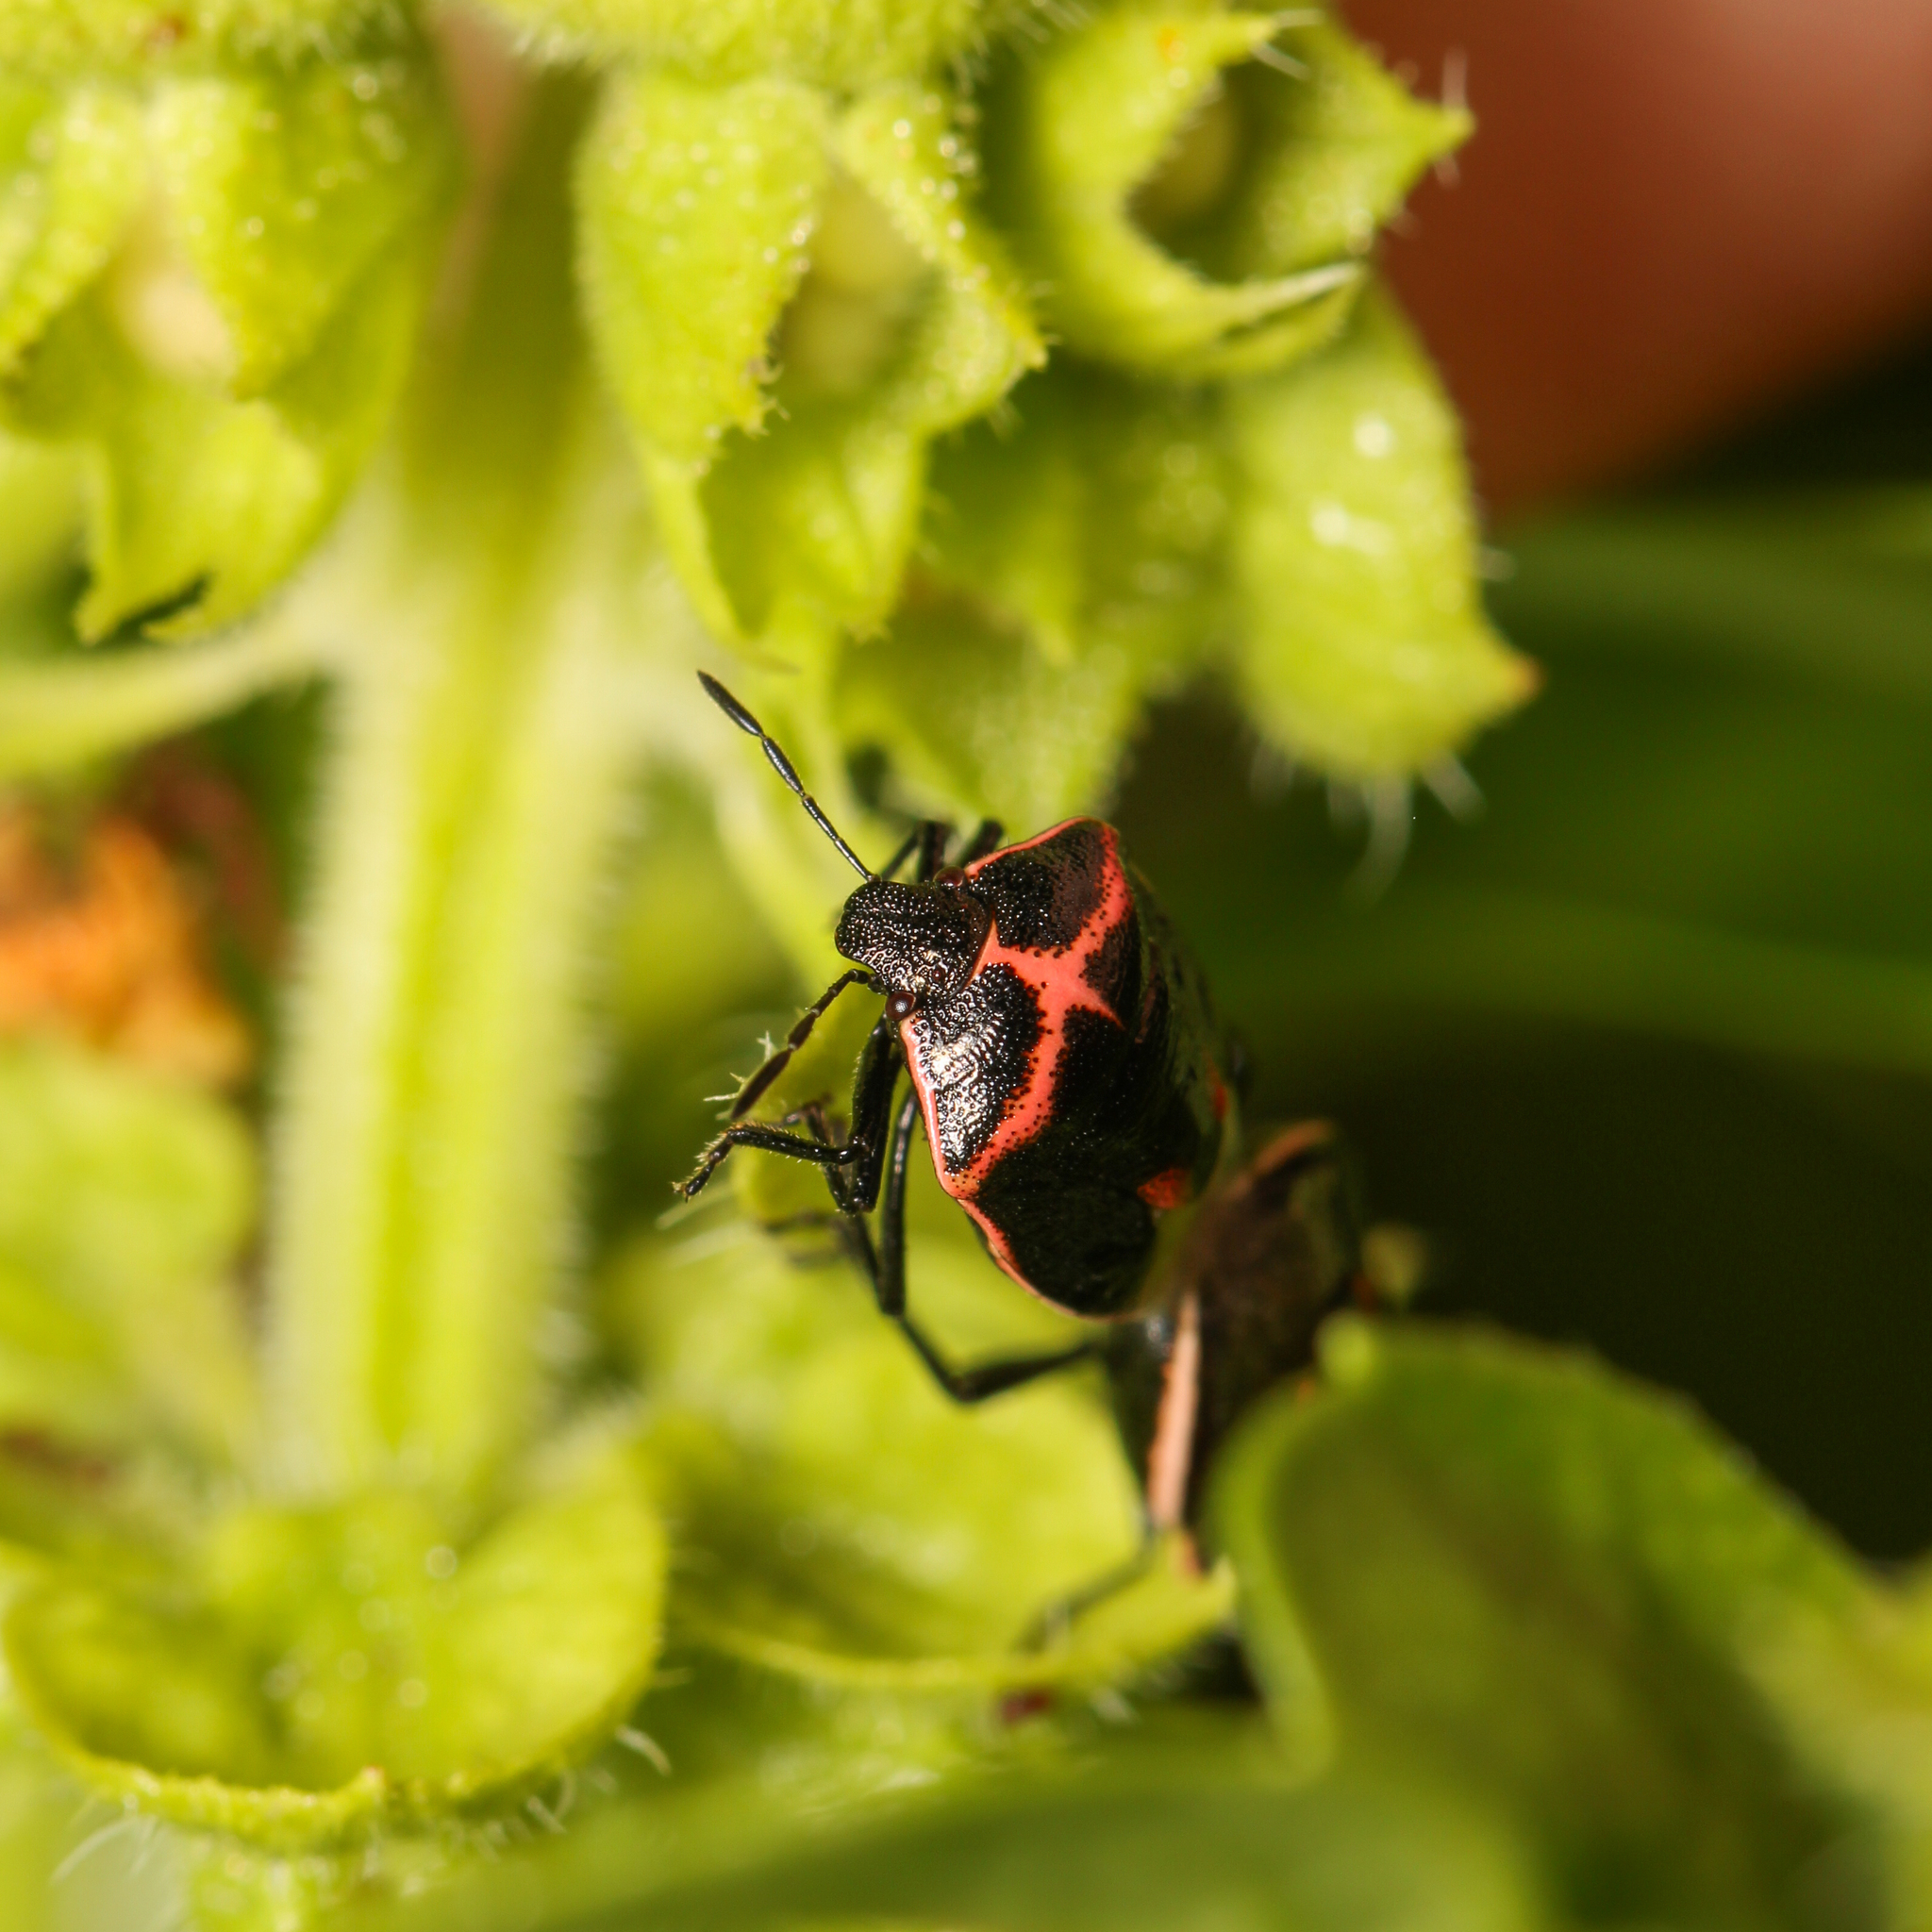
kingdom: Animalia
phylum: Arthropoda
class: Insecta
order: Hemiptera
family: Pentatomidae
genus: Cosmopepla
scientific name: Cosmopepla lintneriana
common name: Twice-stabbed stink bug
